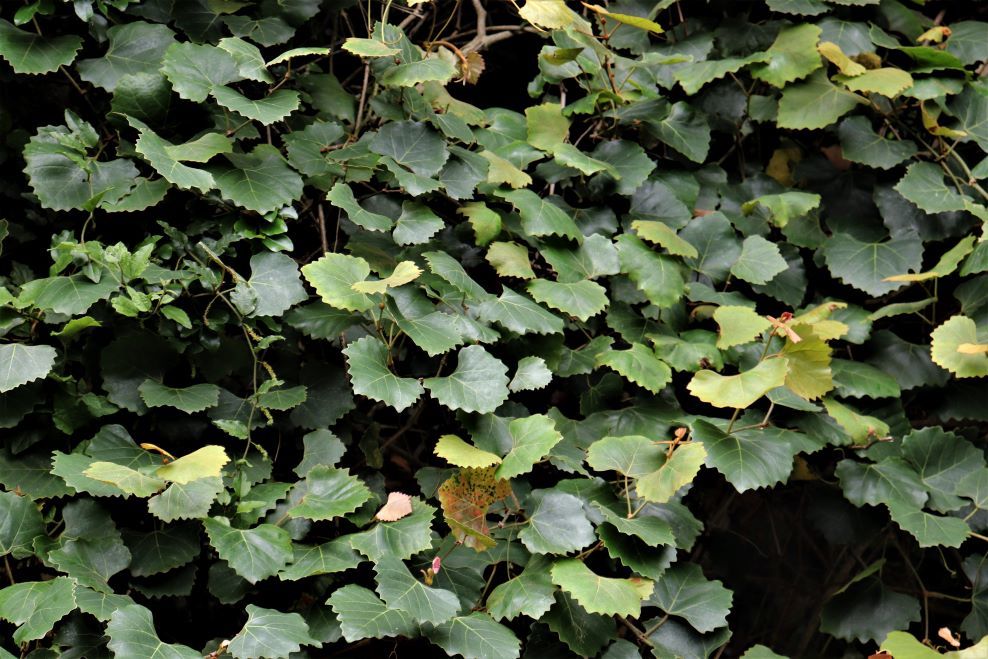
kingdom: Plantae
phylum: Tracheophyta
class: Magnoliopsida
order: Vitales
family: Vitaceae
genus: Rhoicissus
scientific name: Rhoicissus tomentosa
